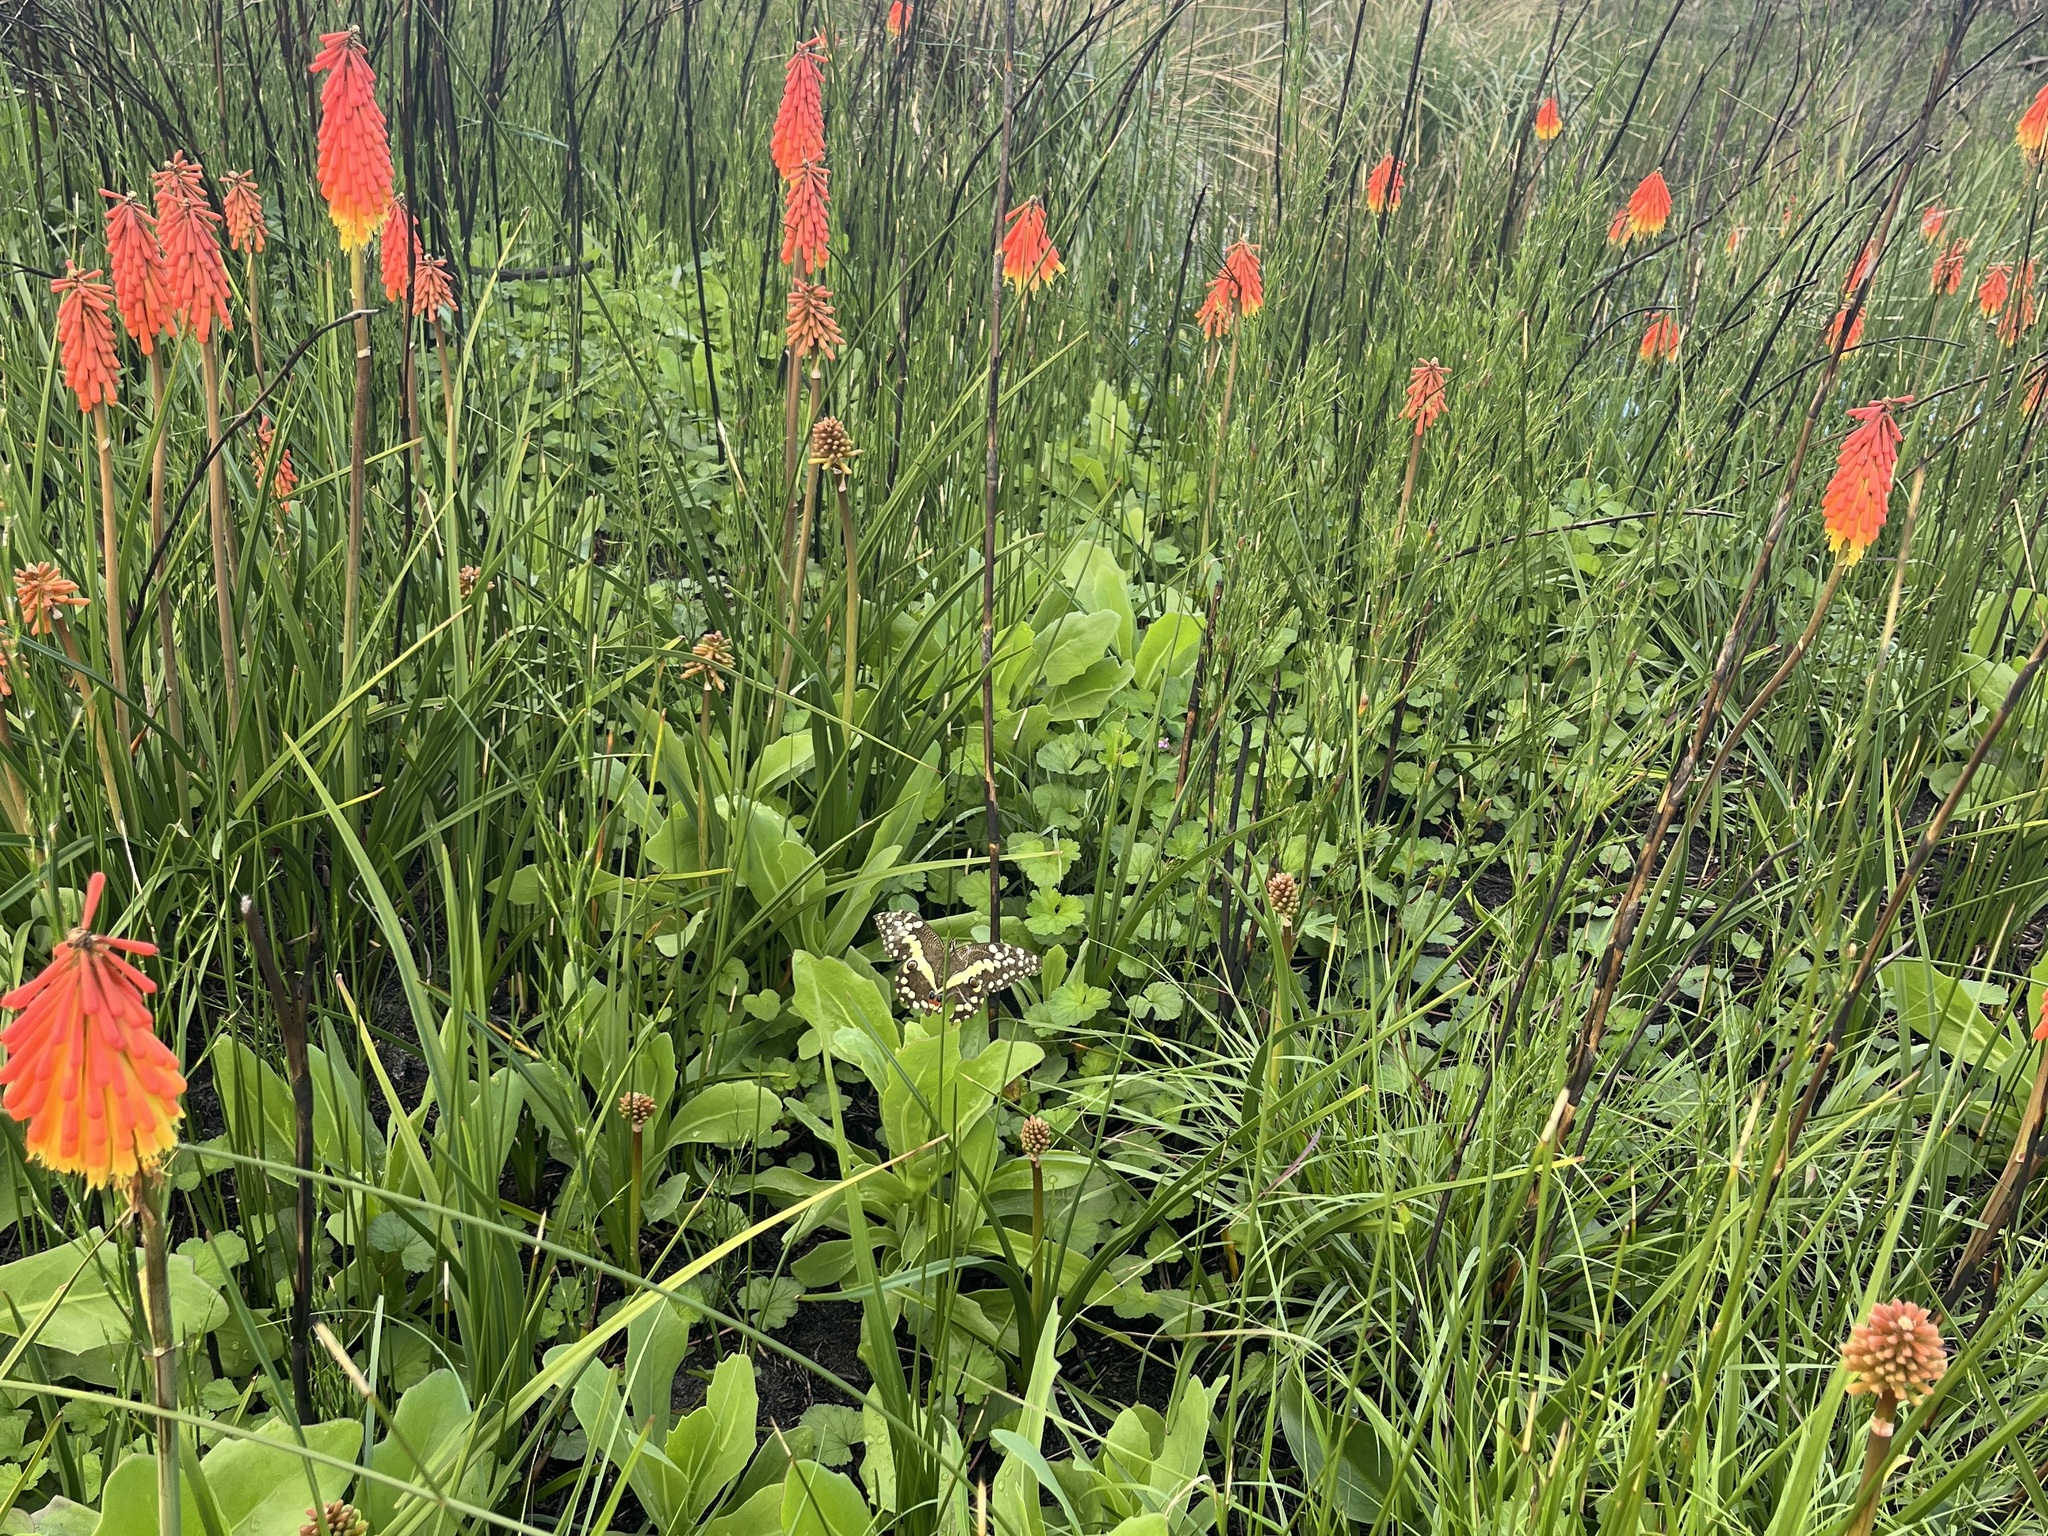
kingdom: Animalia
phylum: Arthropoda
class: Insecta
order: Lepidoptera
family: Papilionidae
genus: Papilio
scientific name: Papilio demodocus
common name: Christmas butterfly
